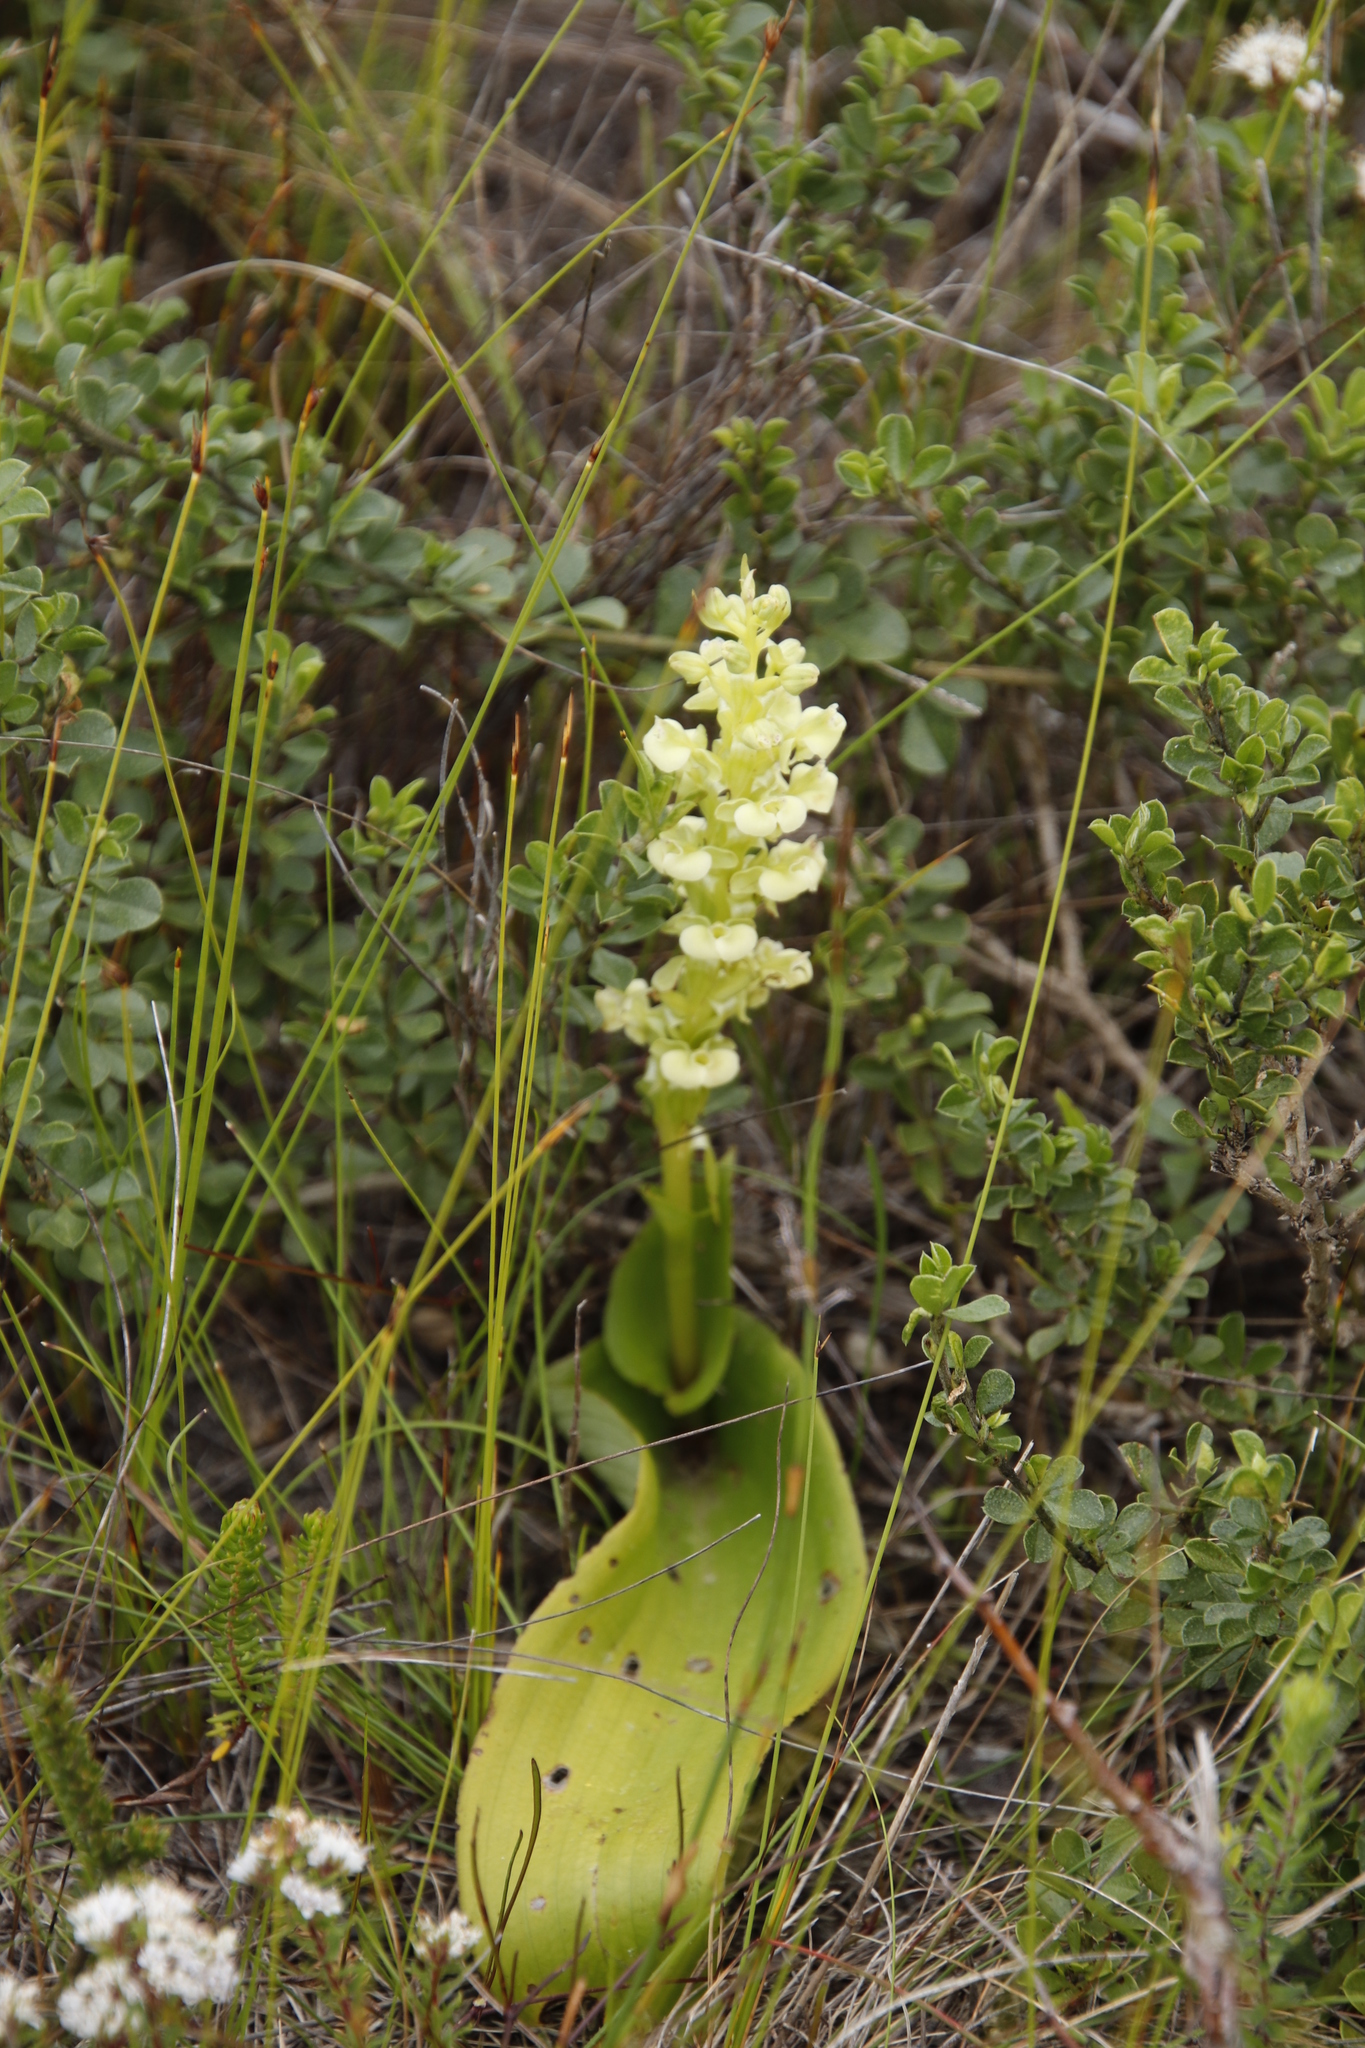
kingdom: Plantae
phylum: Tracheophyta
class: Liliopsida
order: Asparagales
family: Orchidaceae
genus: Pterygodium
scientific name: Pterygodium volucris
